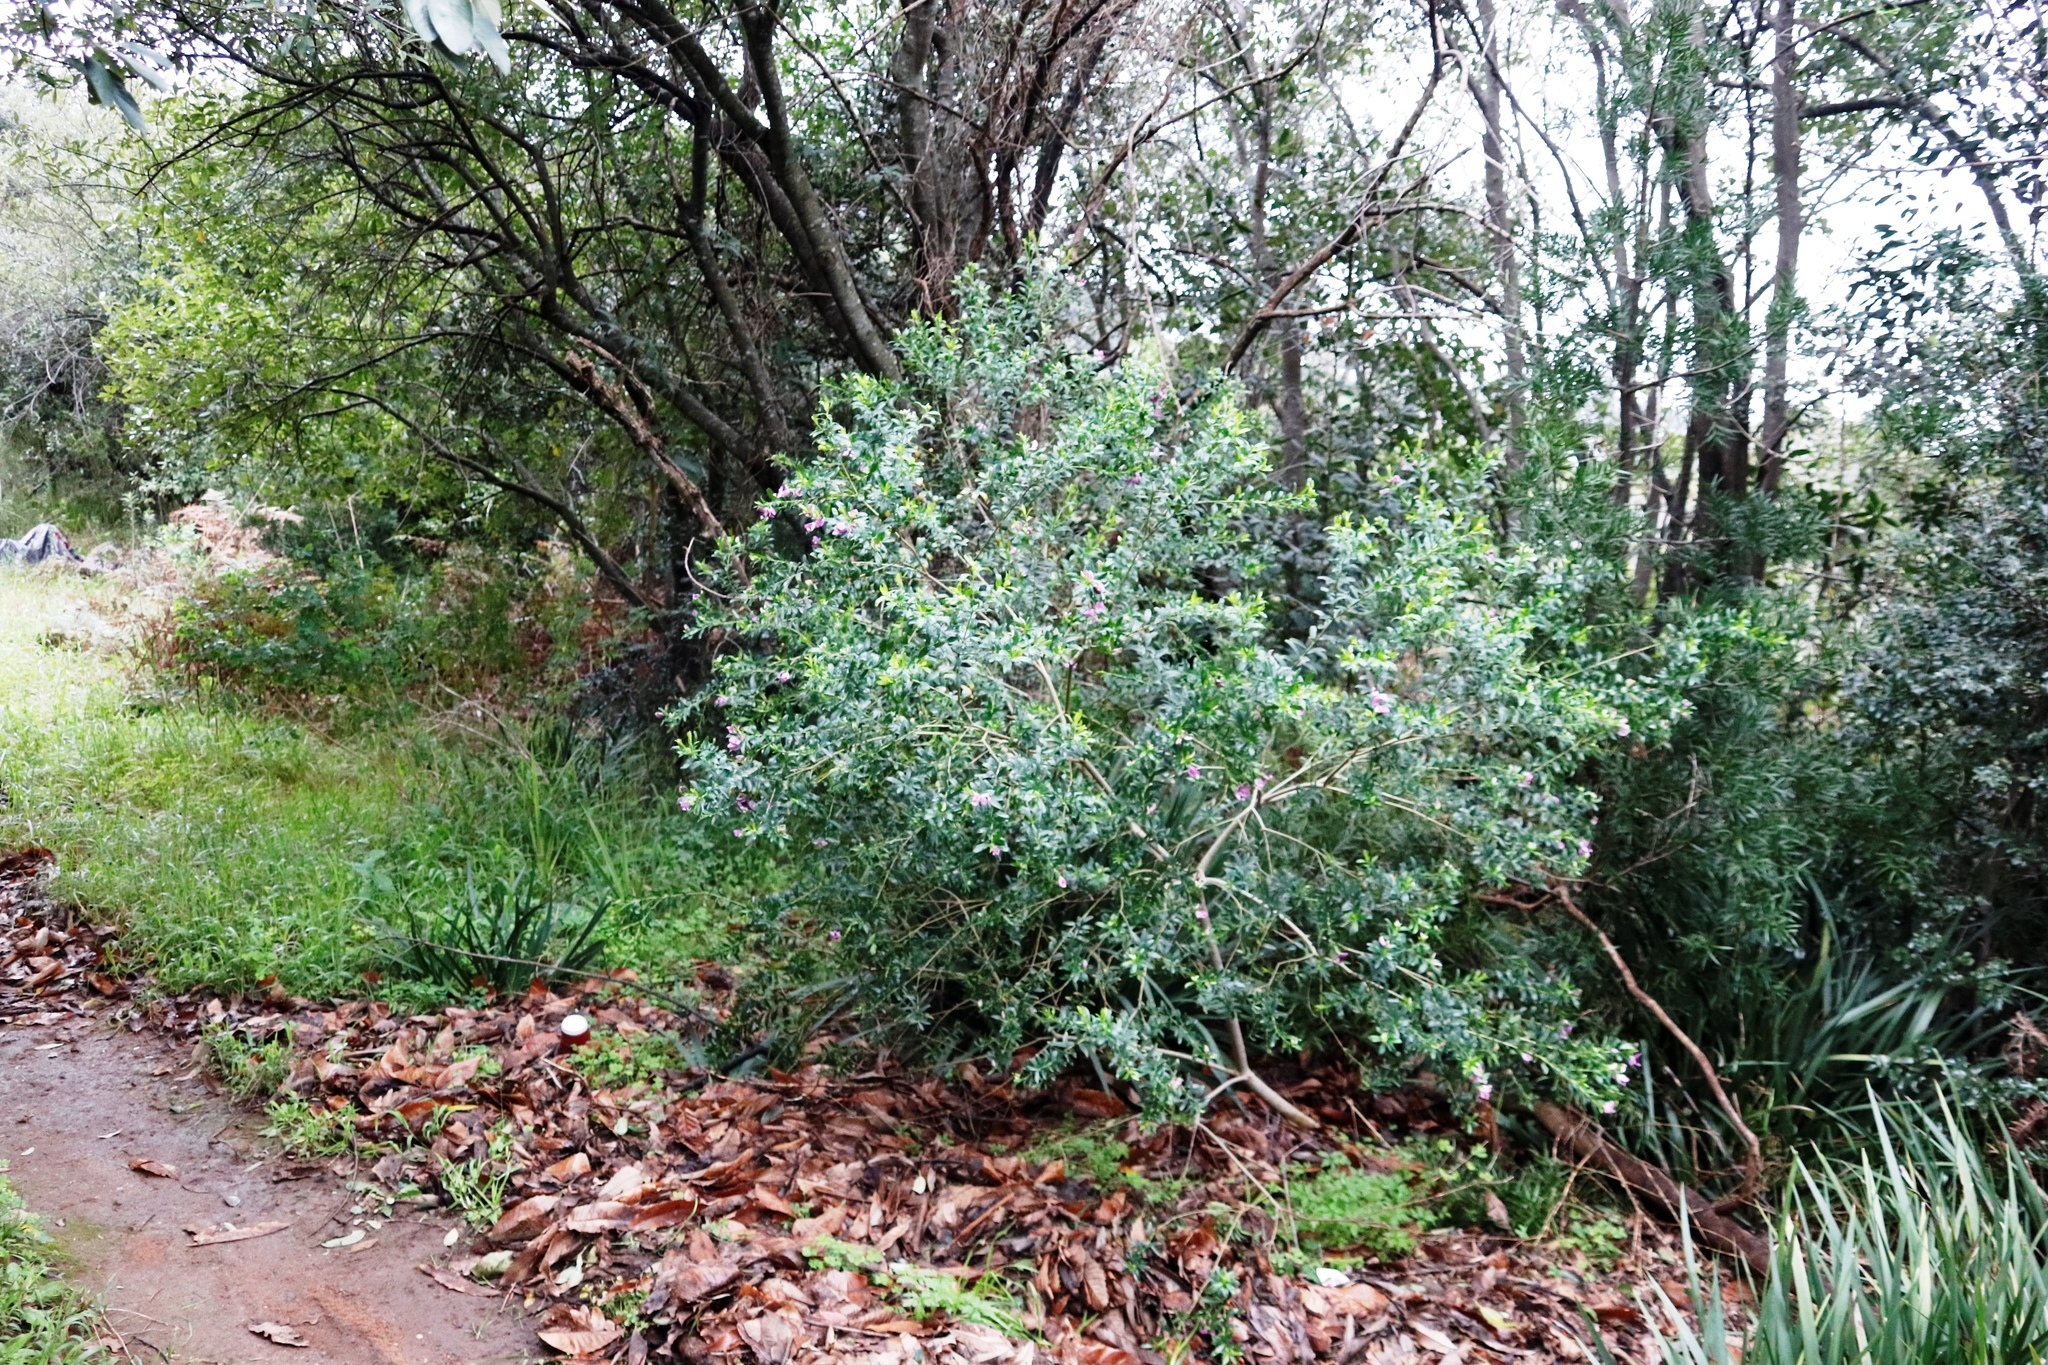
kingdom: Plantae
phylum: Tracheophyta
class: Magnoliopsida
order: Fabales
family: Polygalaceae
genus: Polygala
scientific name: Polygala myrtifolia
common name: Myrtle-leaf milkwort
